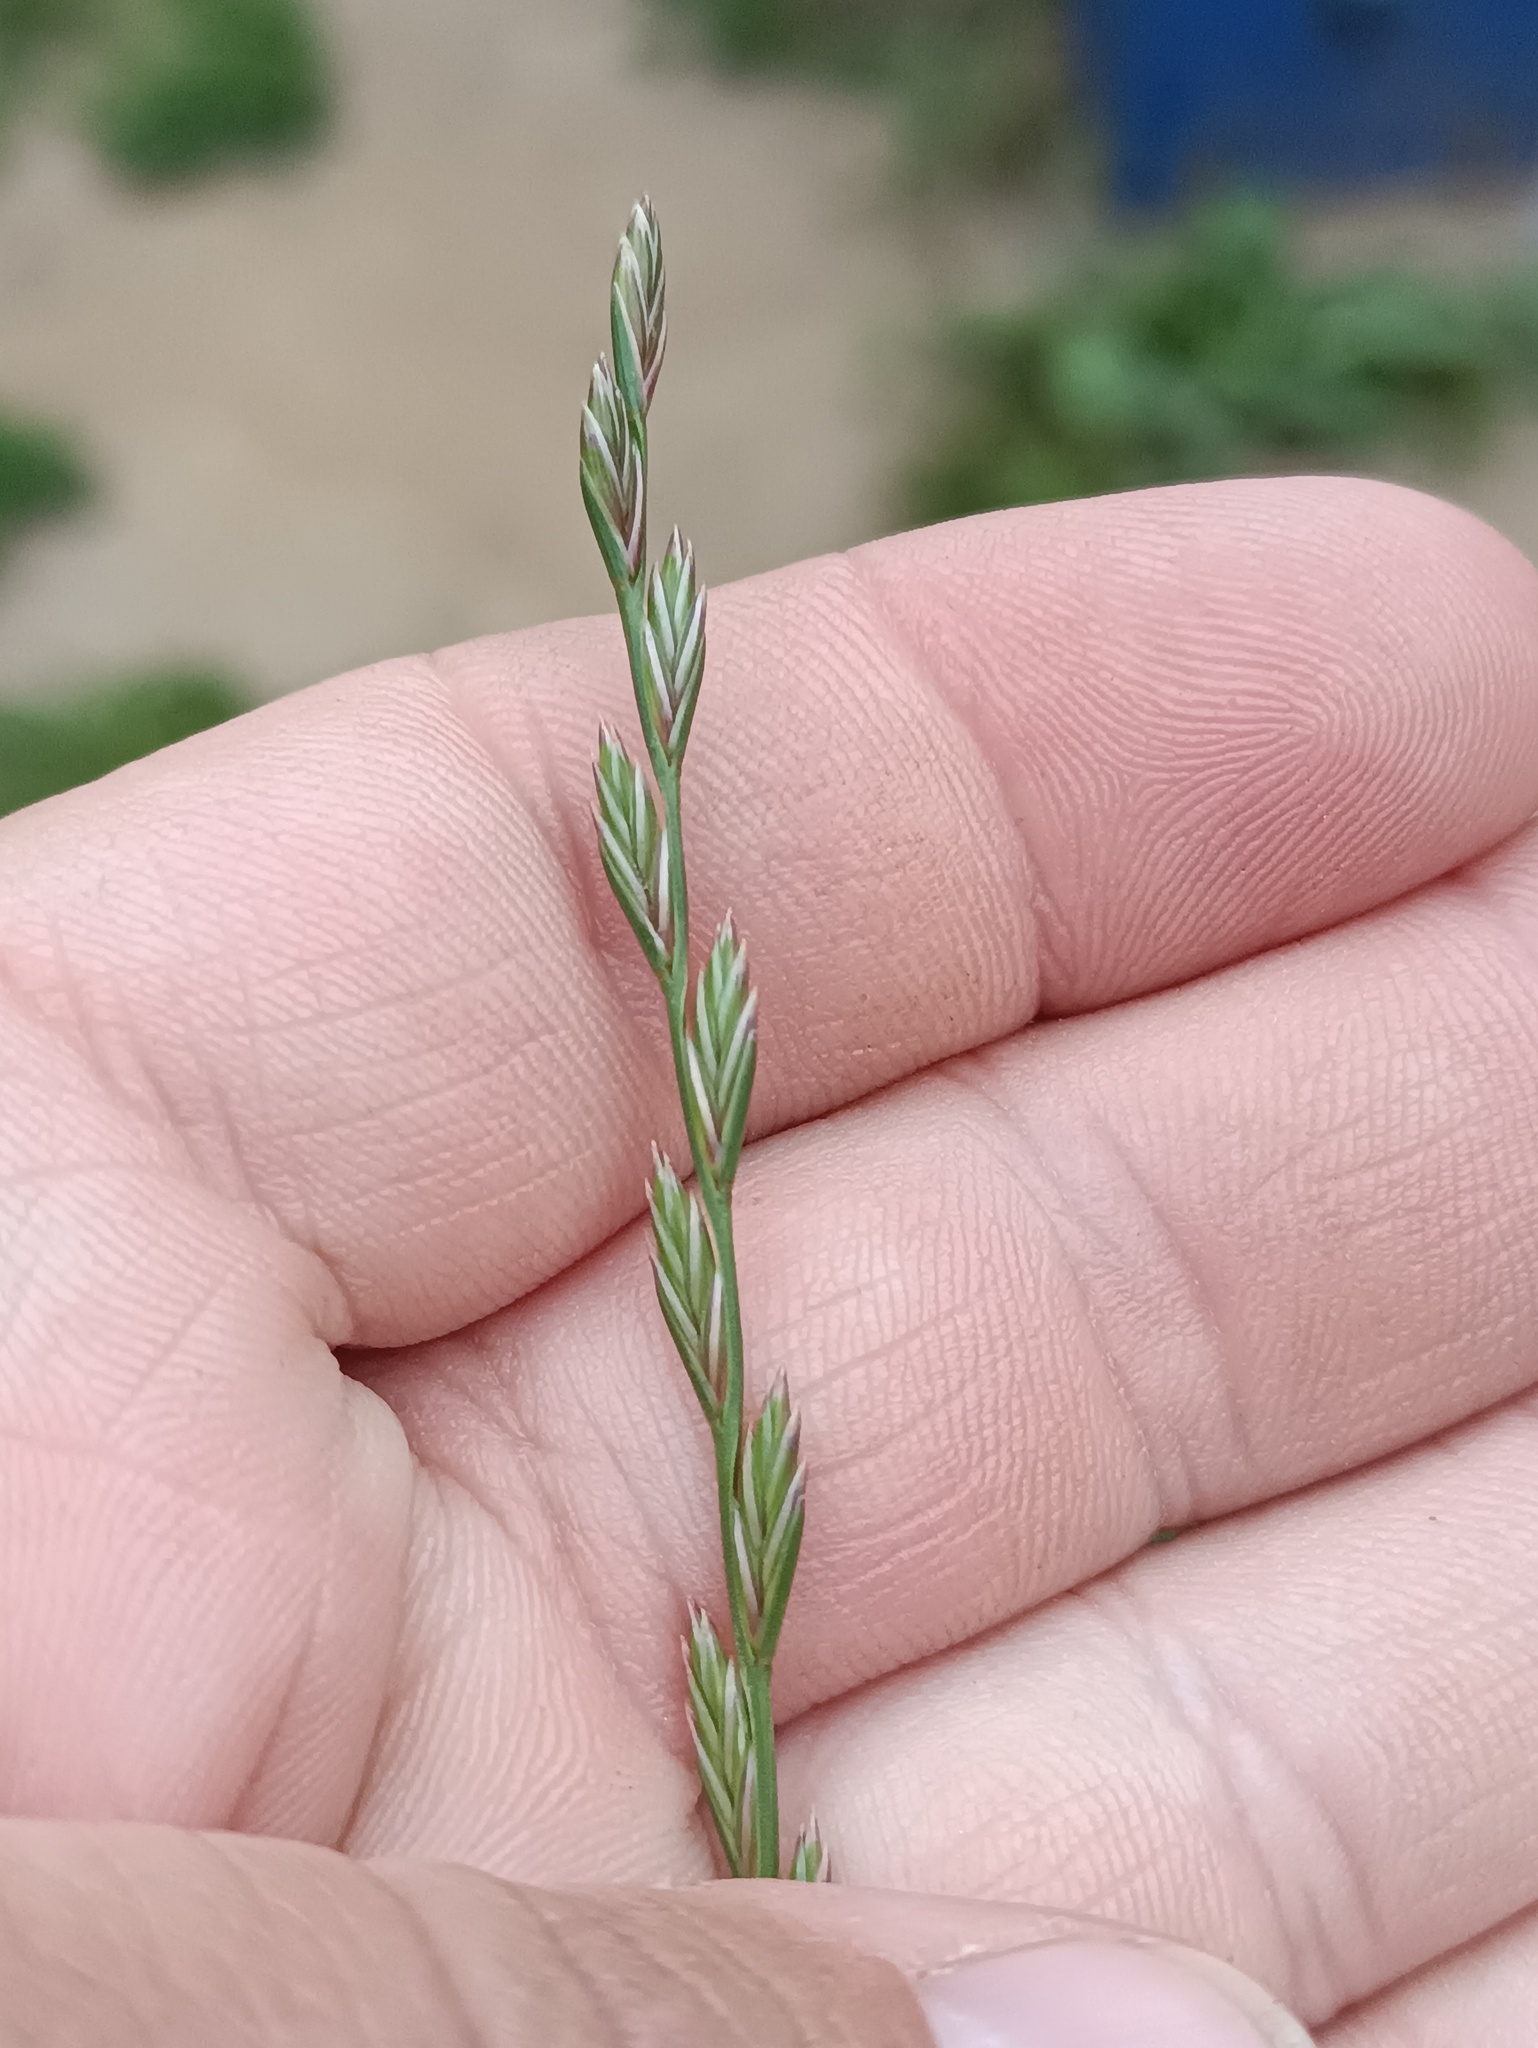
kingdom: Plantae
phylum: Tracheophyta
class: Liliopsida
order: Poales
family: Poaceae
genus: Lolium
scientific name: Lolium perenne
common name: Perennial ryegrass
